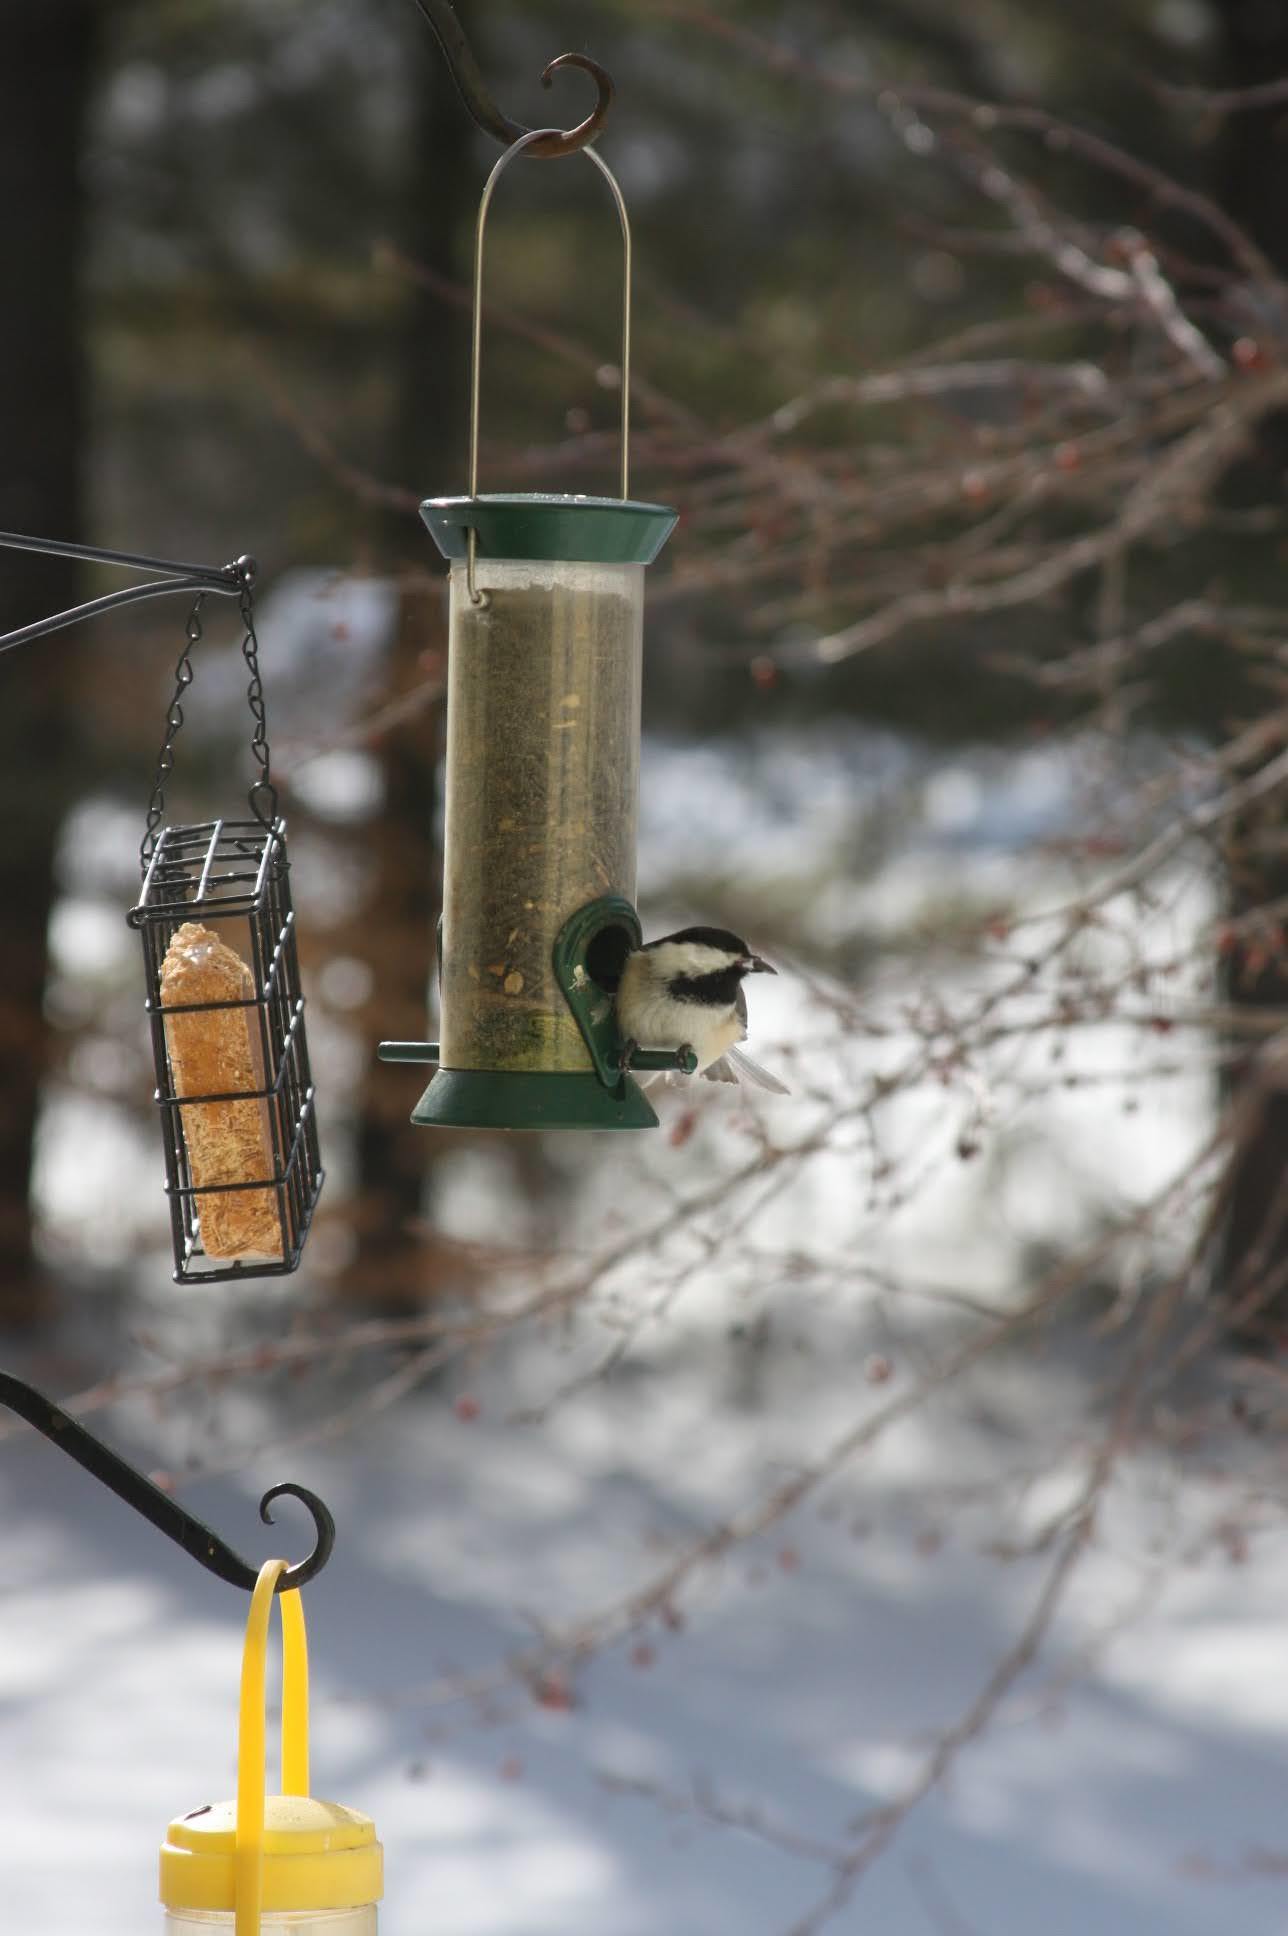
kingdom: Animalia
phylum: Chordata
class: Aves
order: Passeriformes
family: Paridae
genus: Poecile
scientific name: Poecile atricapillus
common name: Black-capped chickadee
